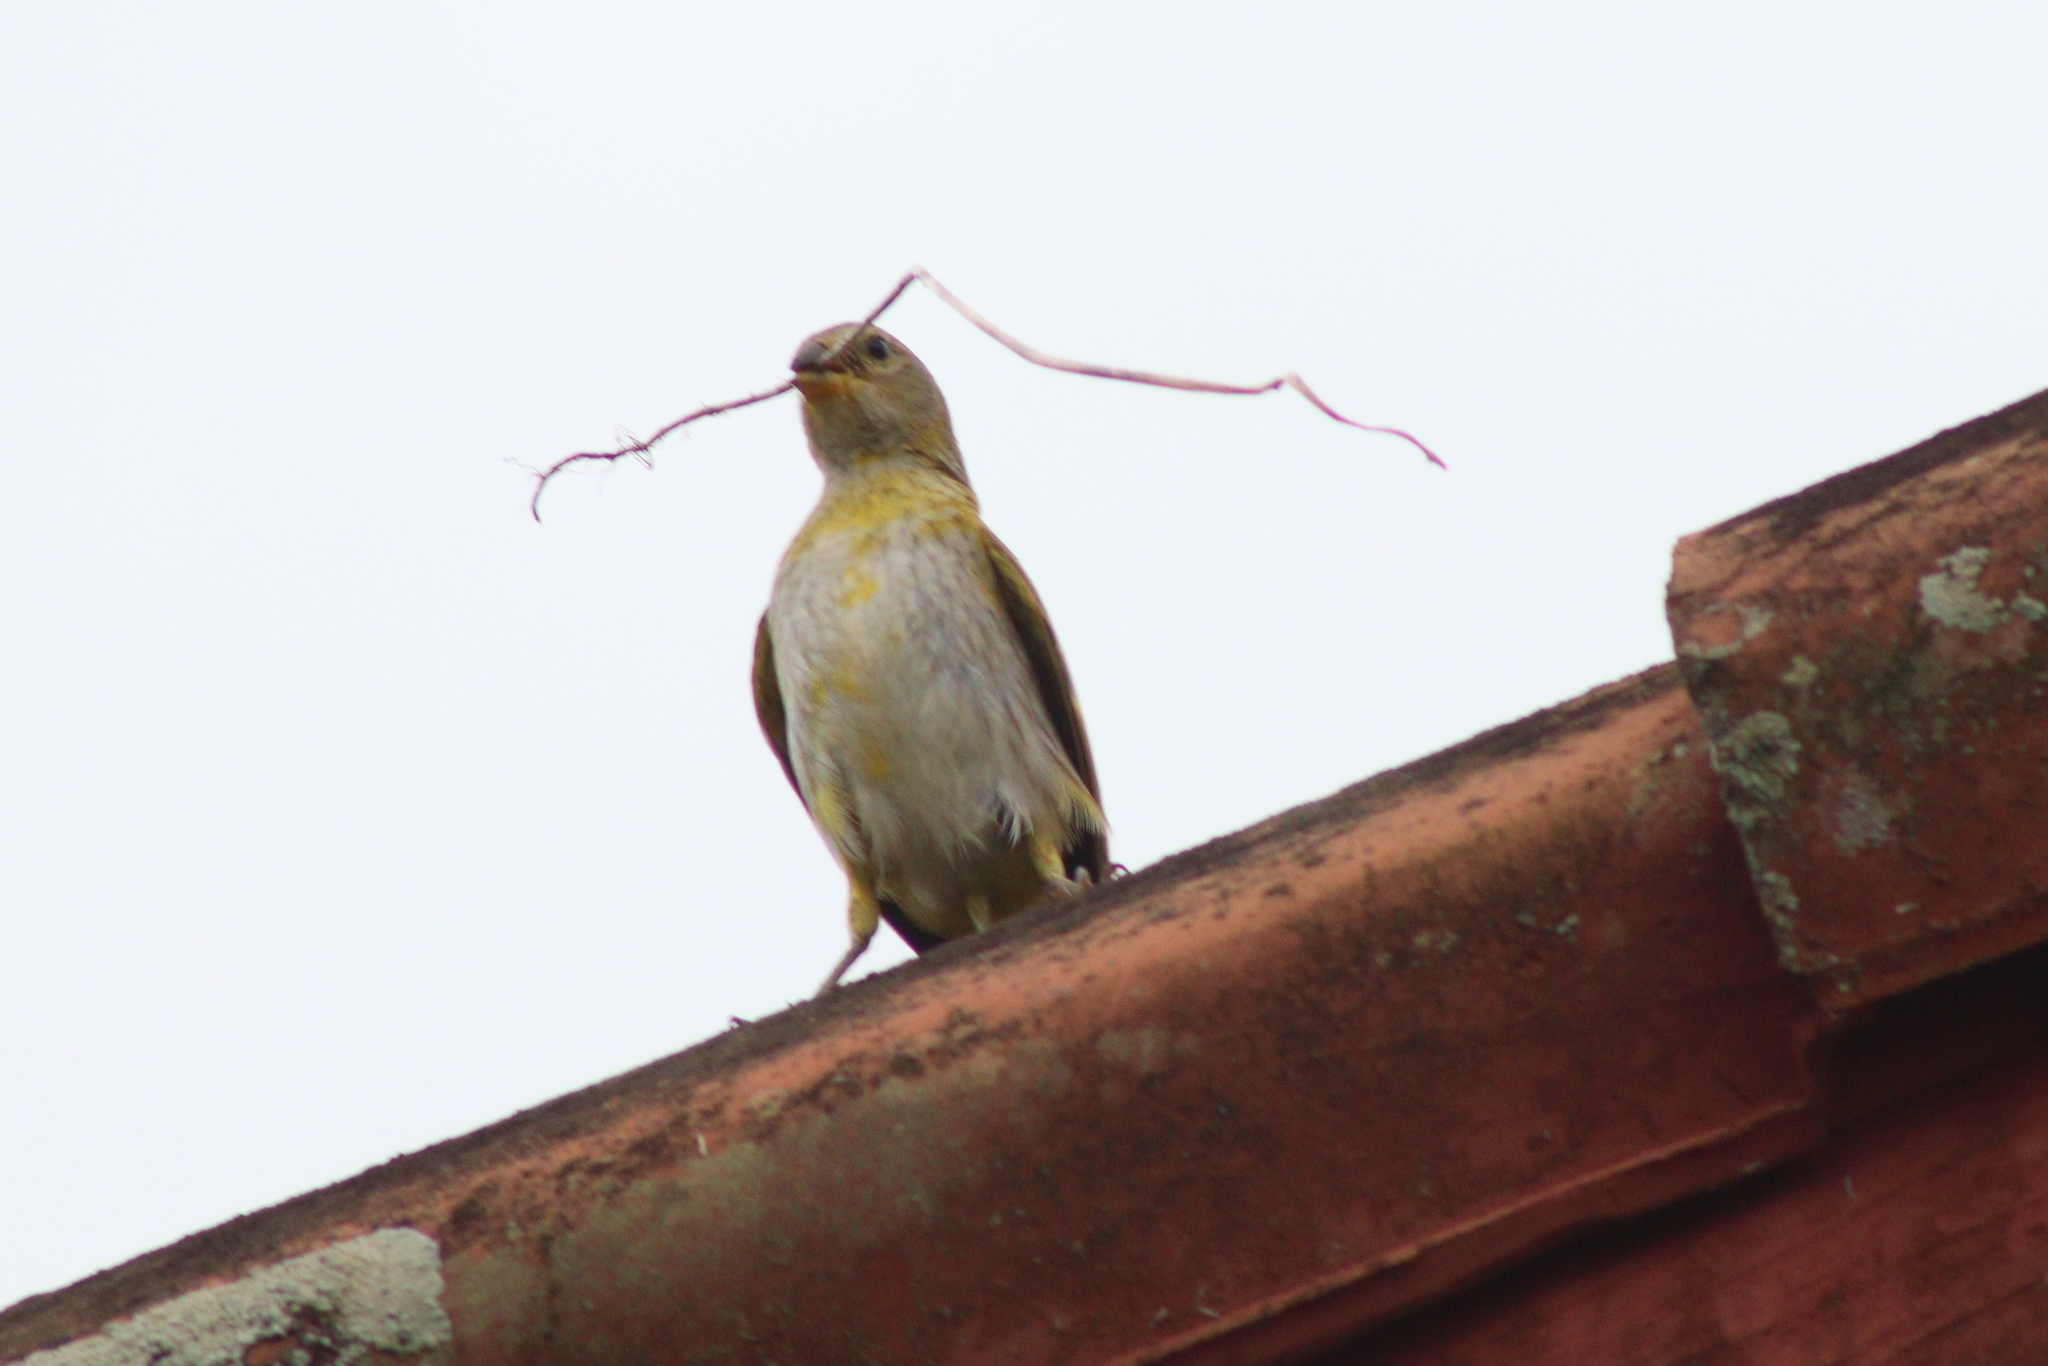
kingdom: Animalia
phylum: Chordata
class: Aves
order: Passeriformes
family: Thraupidae
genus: Sicalis
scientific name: Sicalis flaveola
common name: Saffron finch
